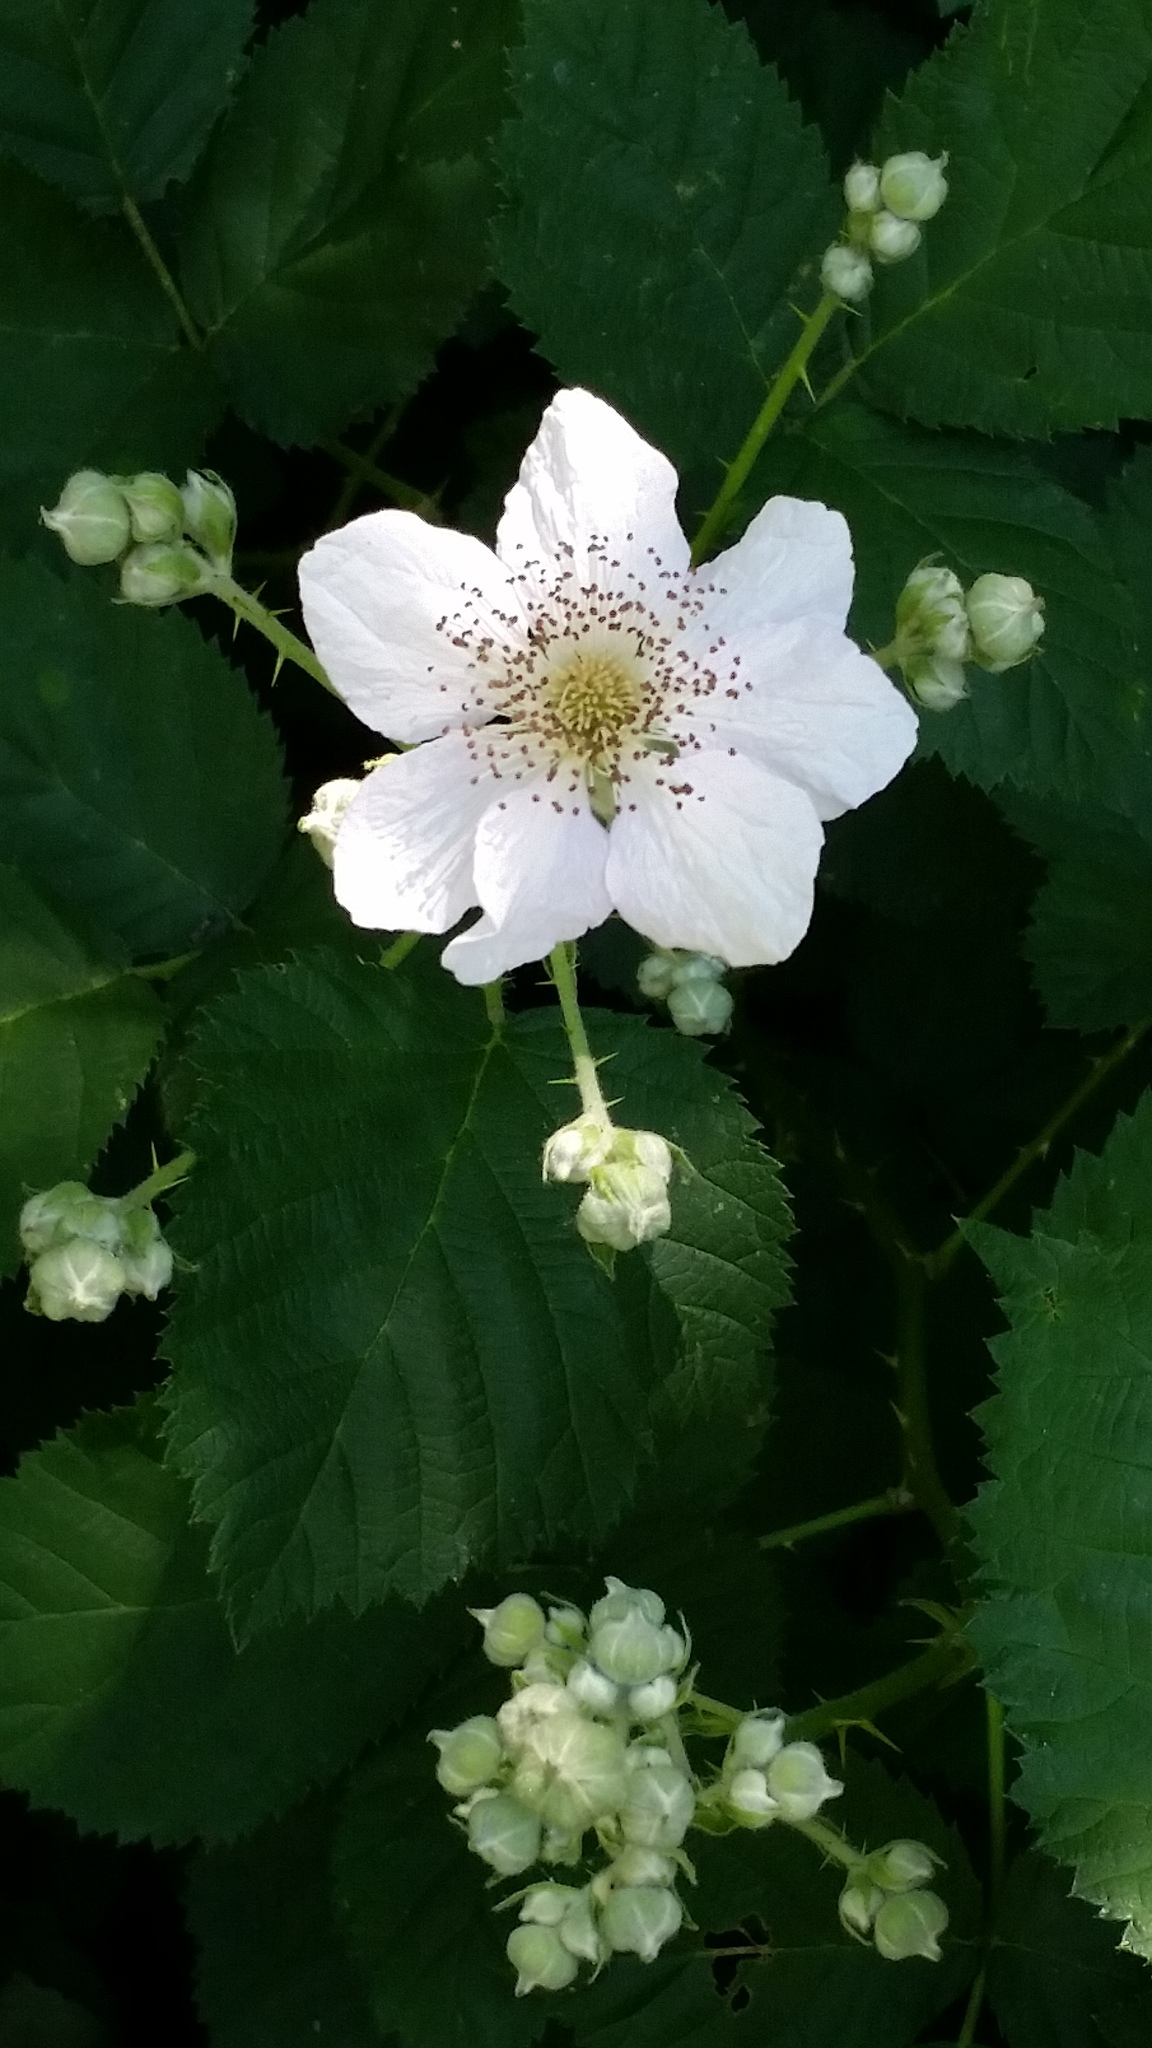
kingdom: Plantae
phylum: Tracheophyta
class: Magnoliopsida
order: Rosales
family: Rosaceae
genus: Rubus
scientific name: Rubus armeniacus
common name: Himalayan blackberry
